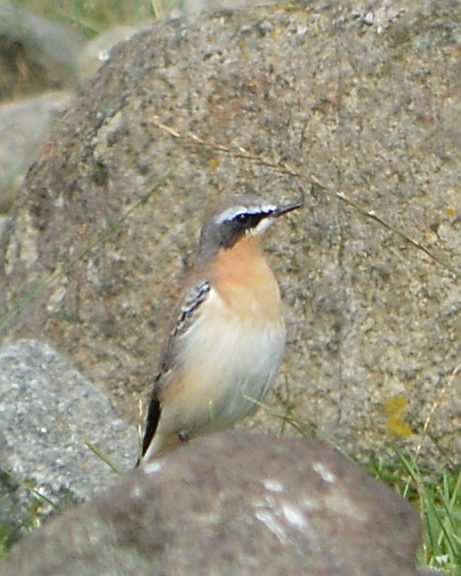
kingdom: Animalia
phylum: Chordata
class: Aves
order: Passeriformes
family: Muscicapidae
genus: Oenanthe
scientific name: Oenanthe oenanthe
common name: Northern wheatear
